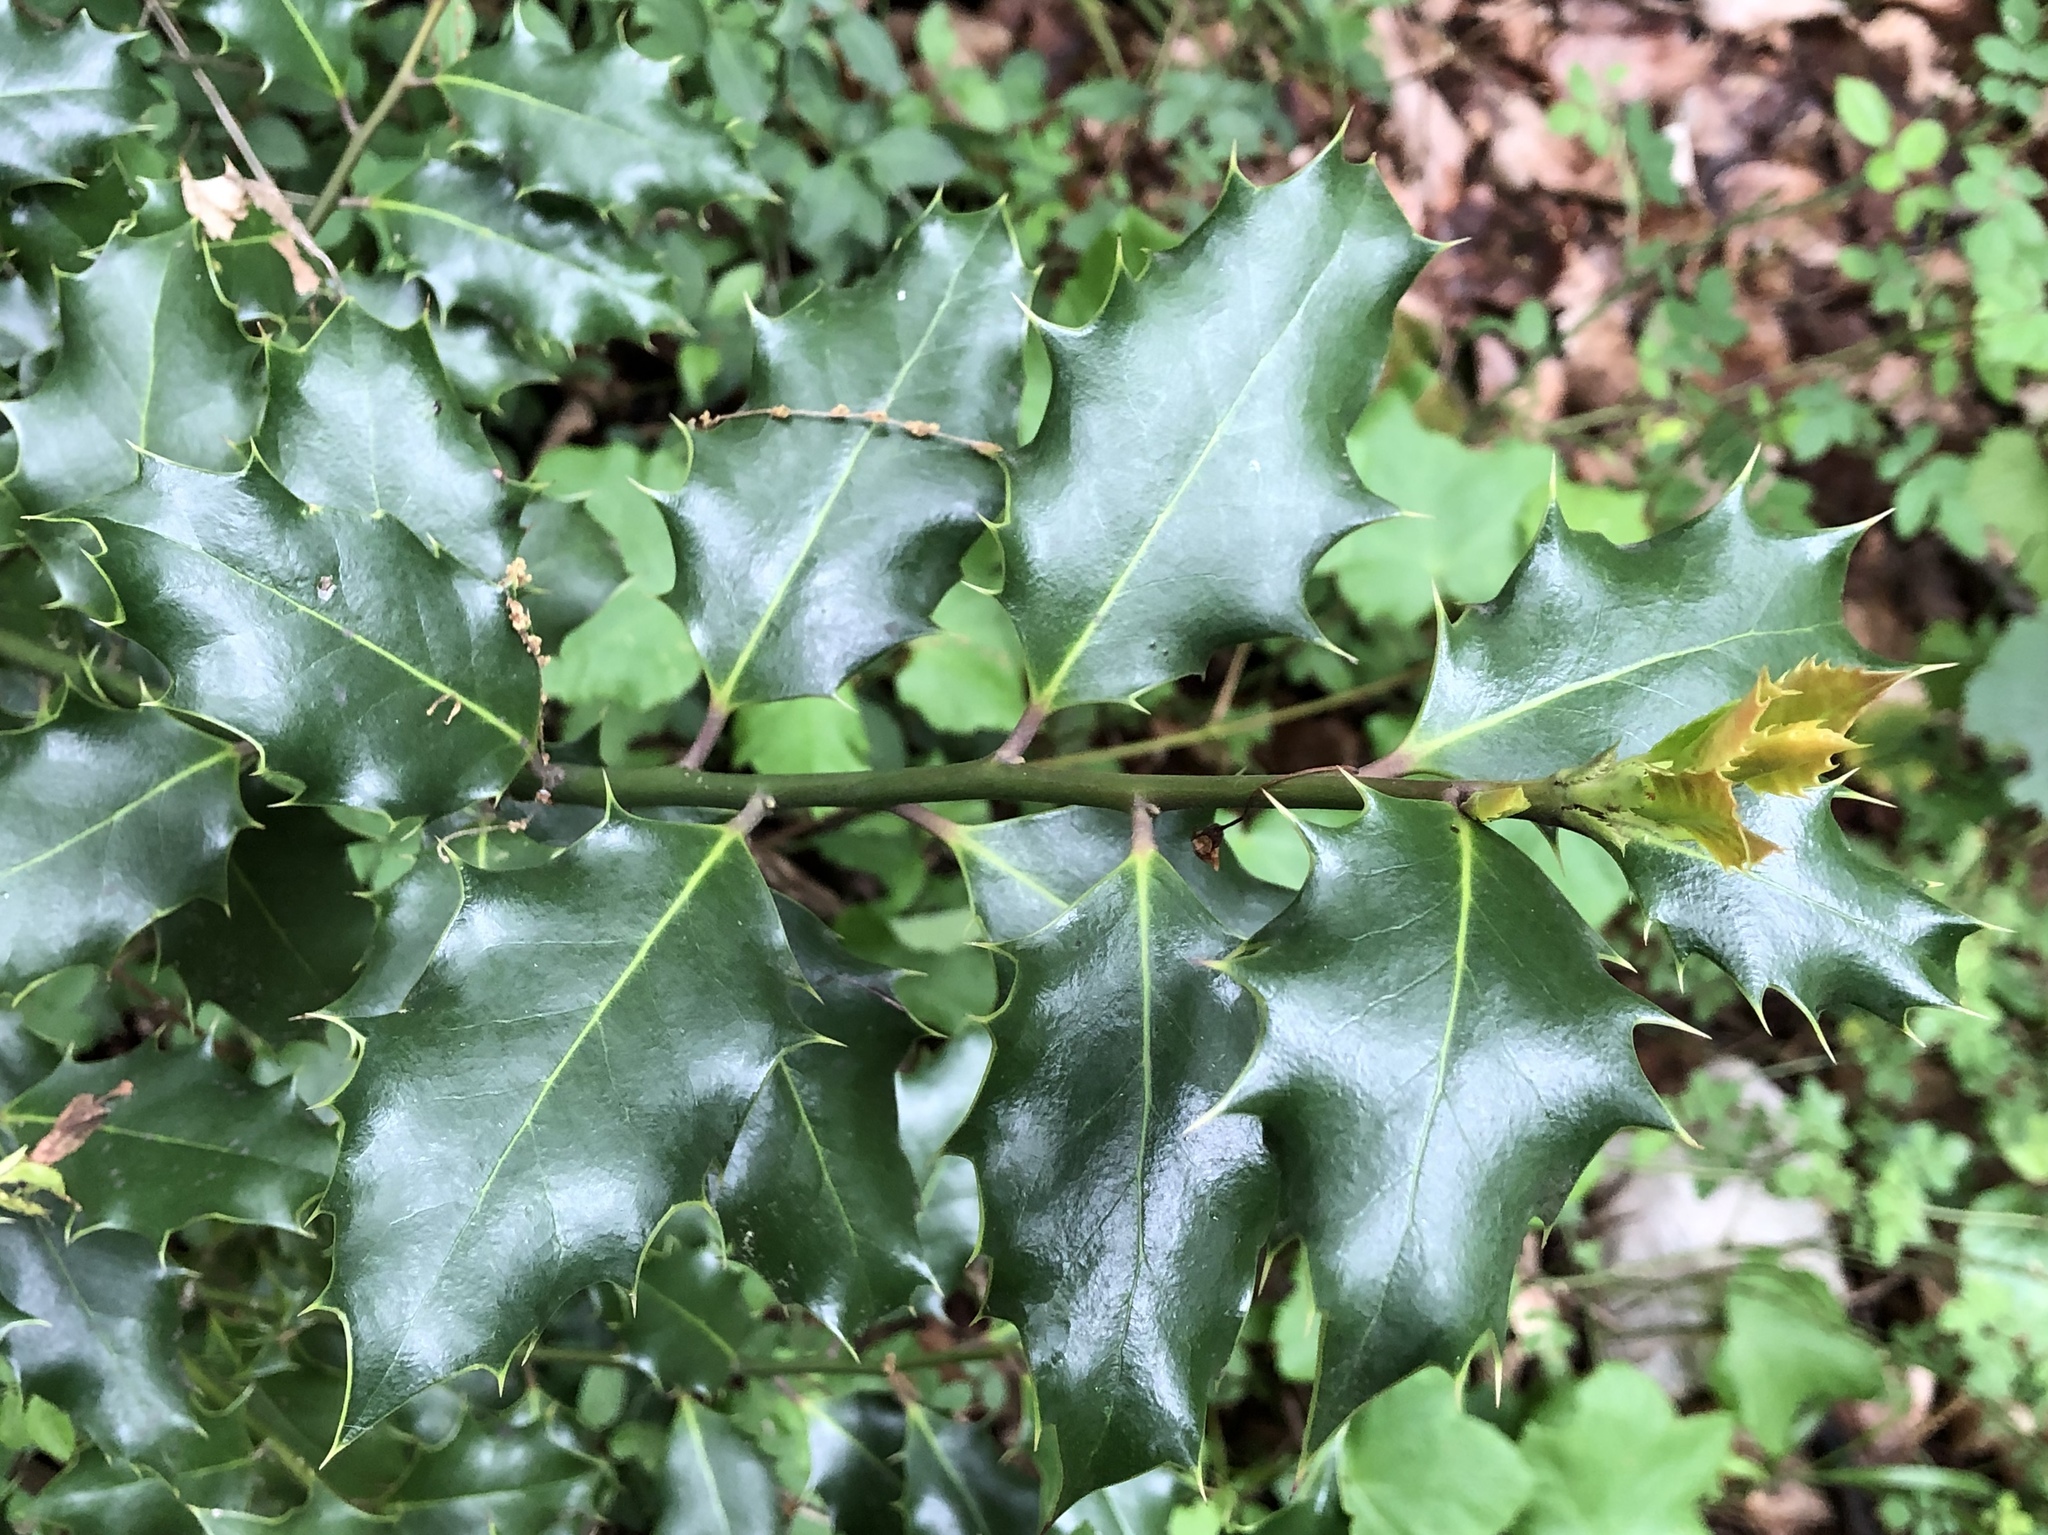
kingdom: Plantae
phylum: Tracheophyta
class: Magnoliopsida
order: Aquifoliales
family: Aquifoliaceae
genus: Ilex
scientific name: Ilex aquifolium
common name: English holly
